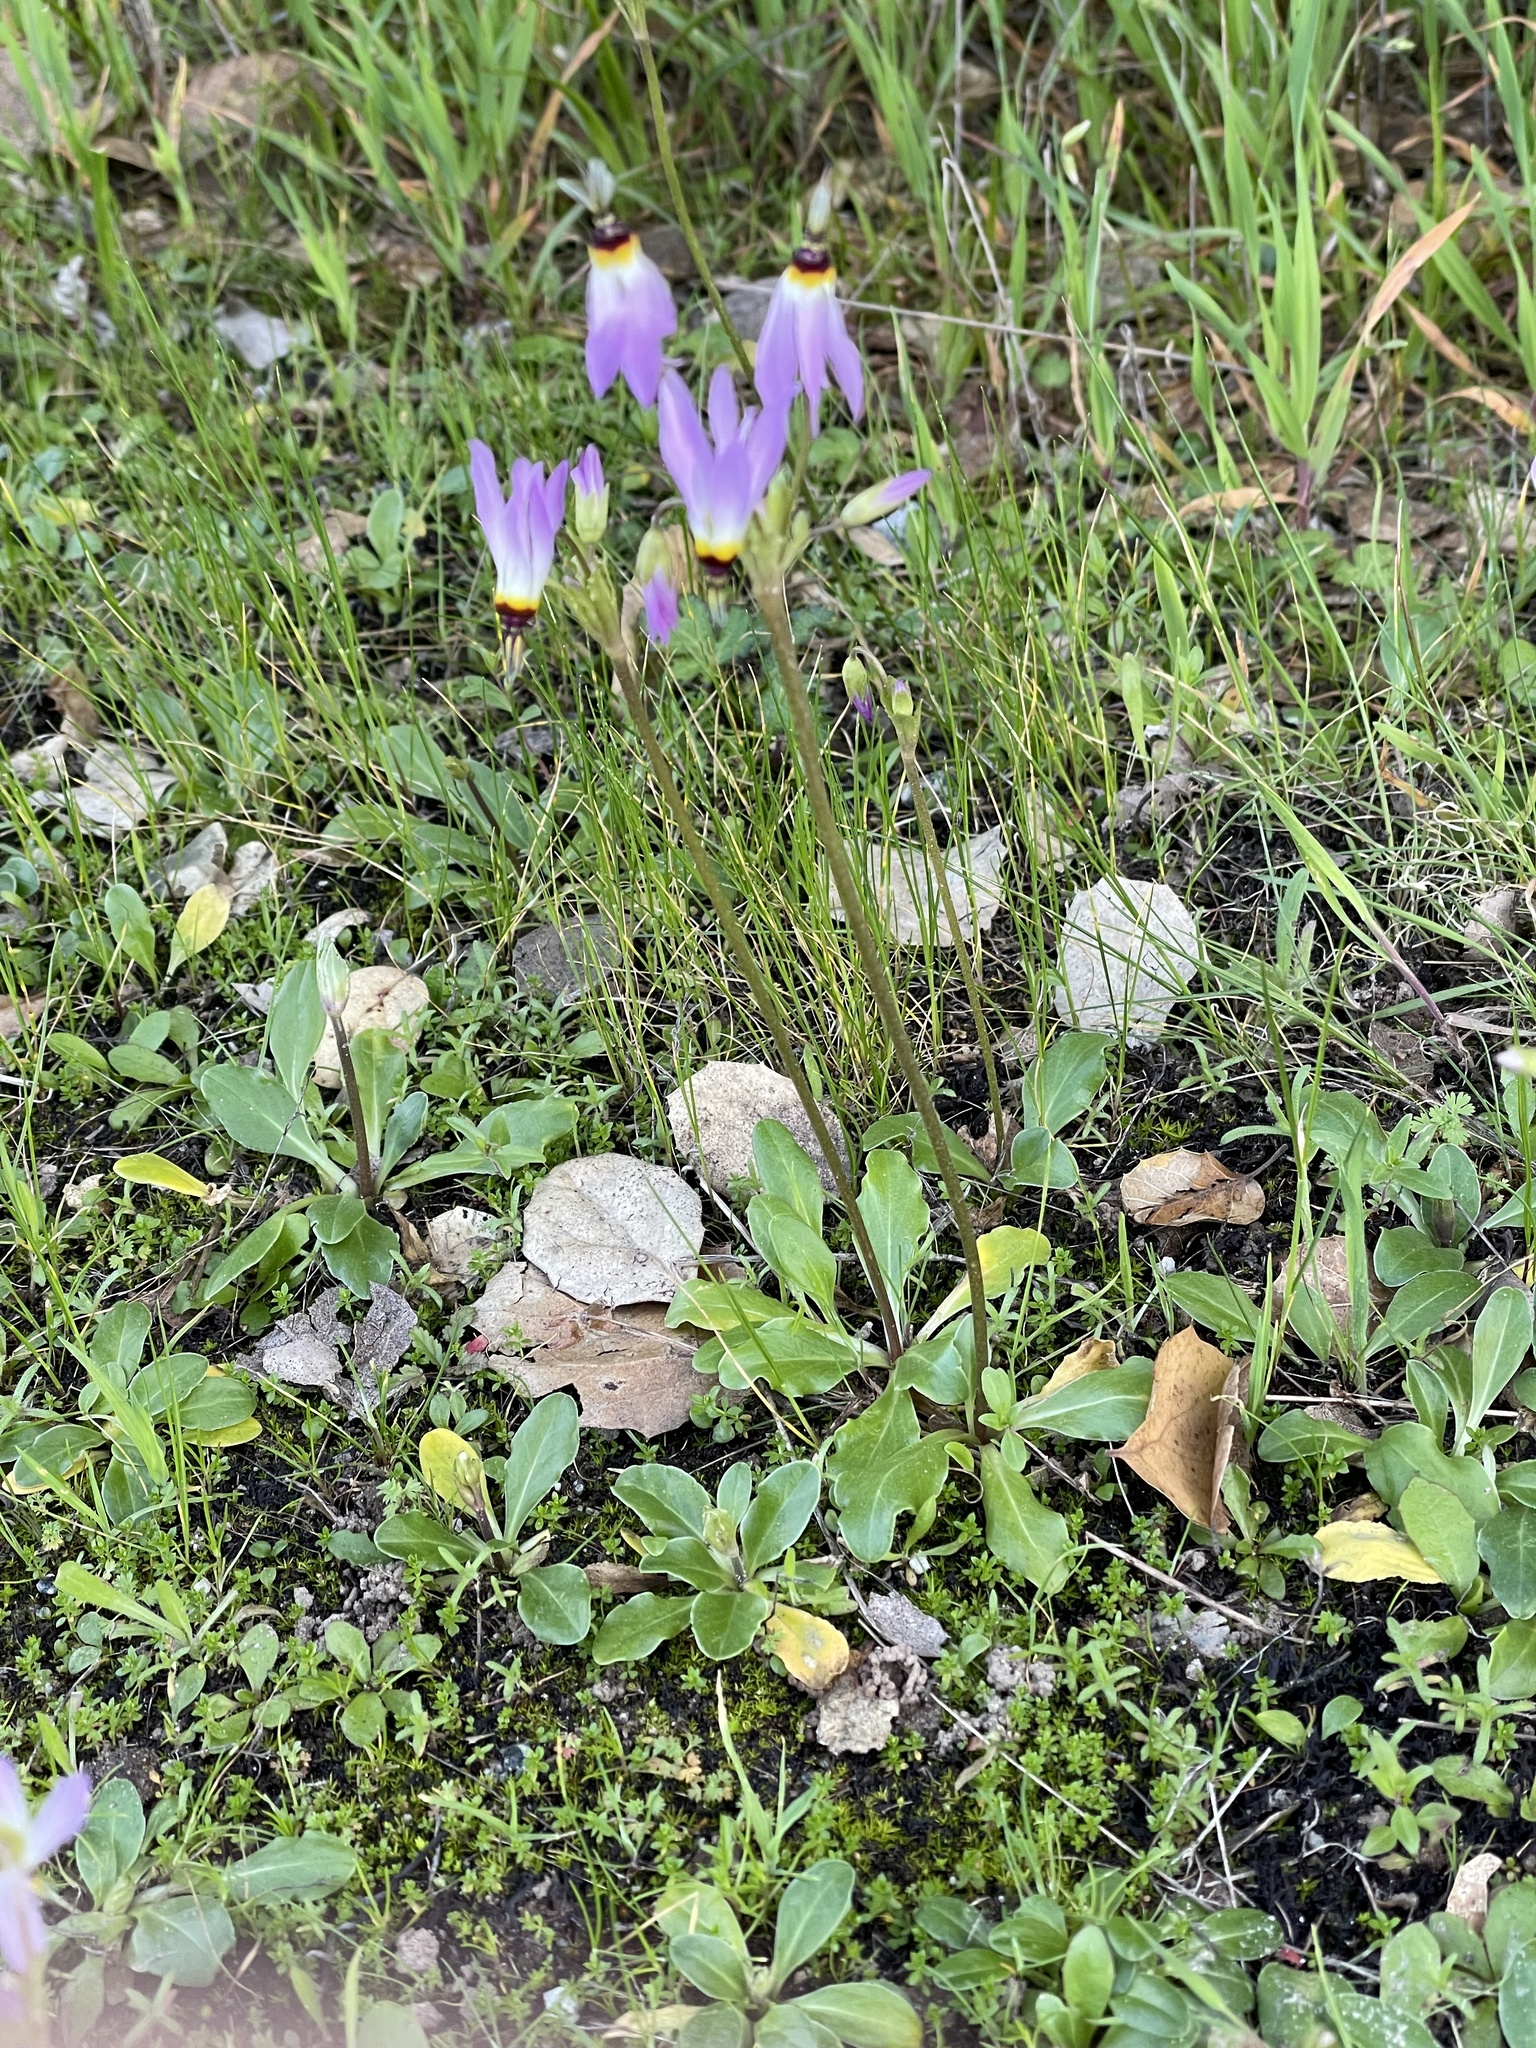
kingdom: Plantae
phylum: Tracheophyta
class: Magnoliopsida
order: Ericales
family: Primulaceae
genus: Dodecatheon
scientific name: Dodecatheon clevelandii
